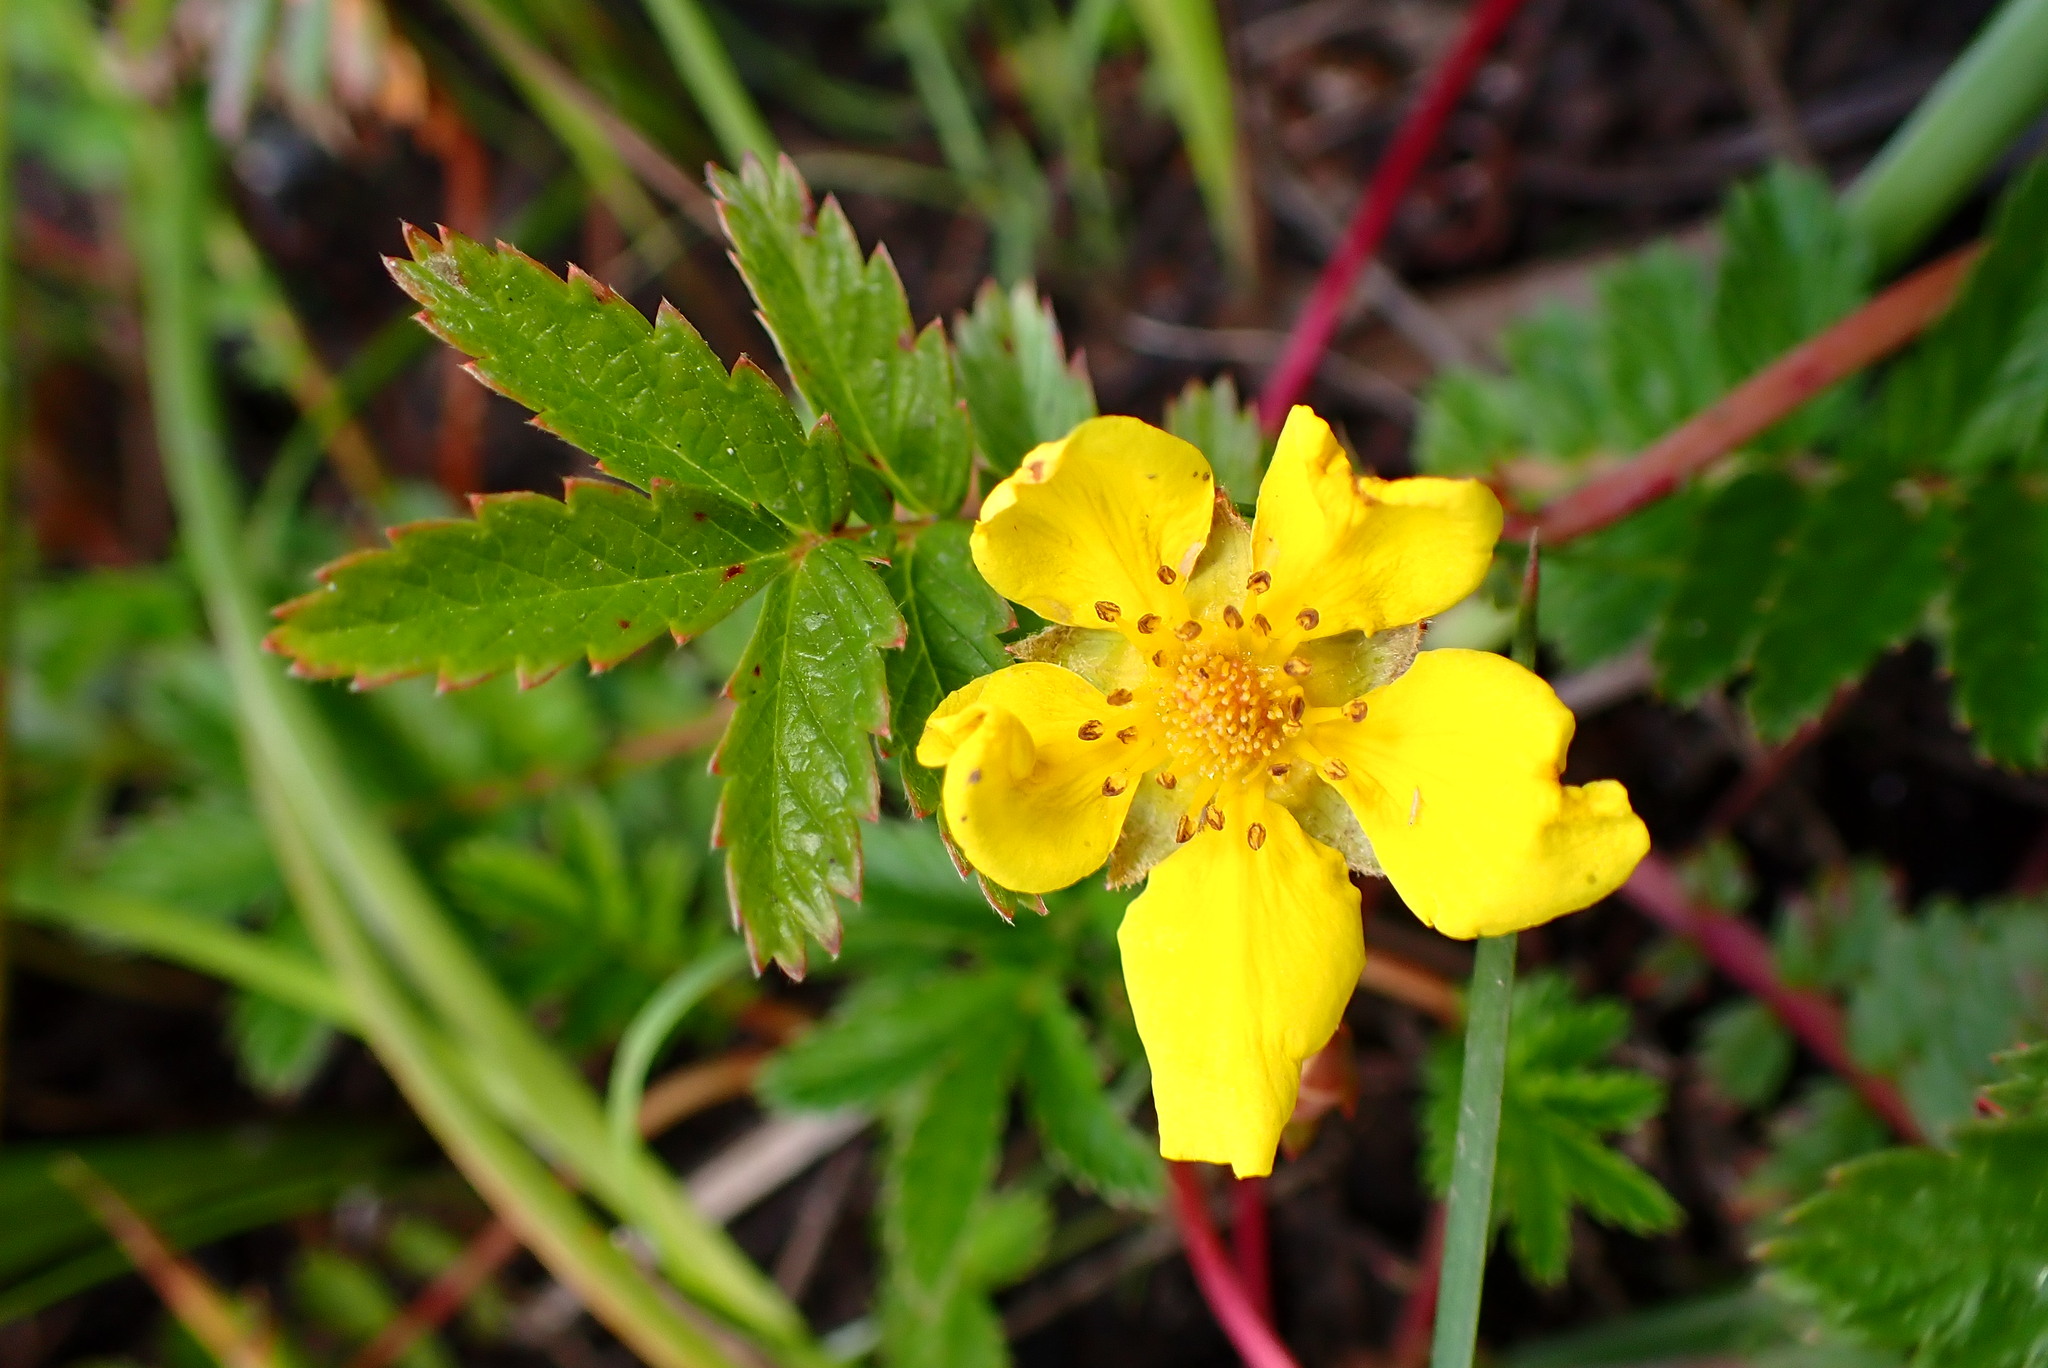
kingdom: Plantae
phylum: Tracheophyta
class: Magnoliopsida
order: Rosales
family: Rosaceae
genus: Argentina
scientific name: Argentina anserina
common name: Common silverweed
